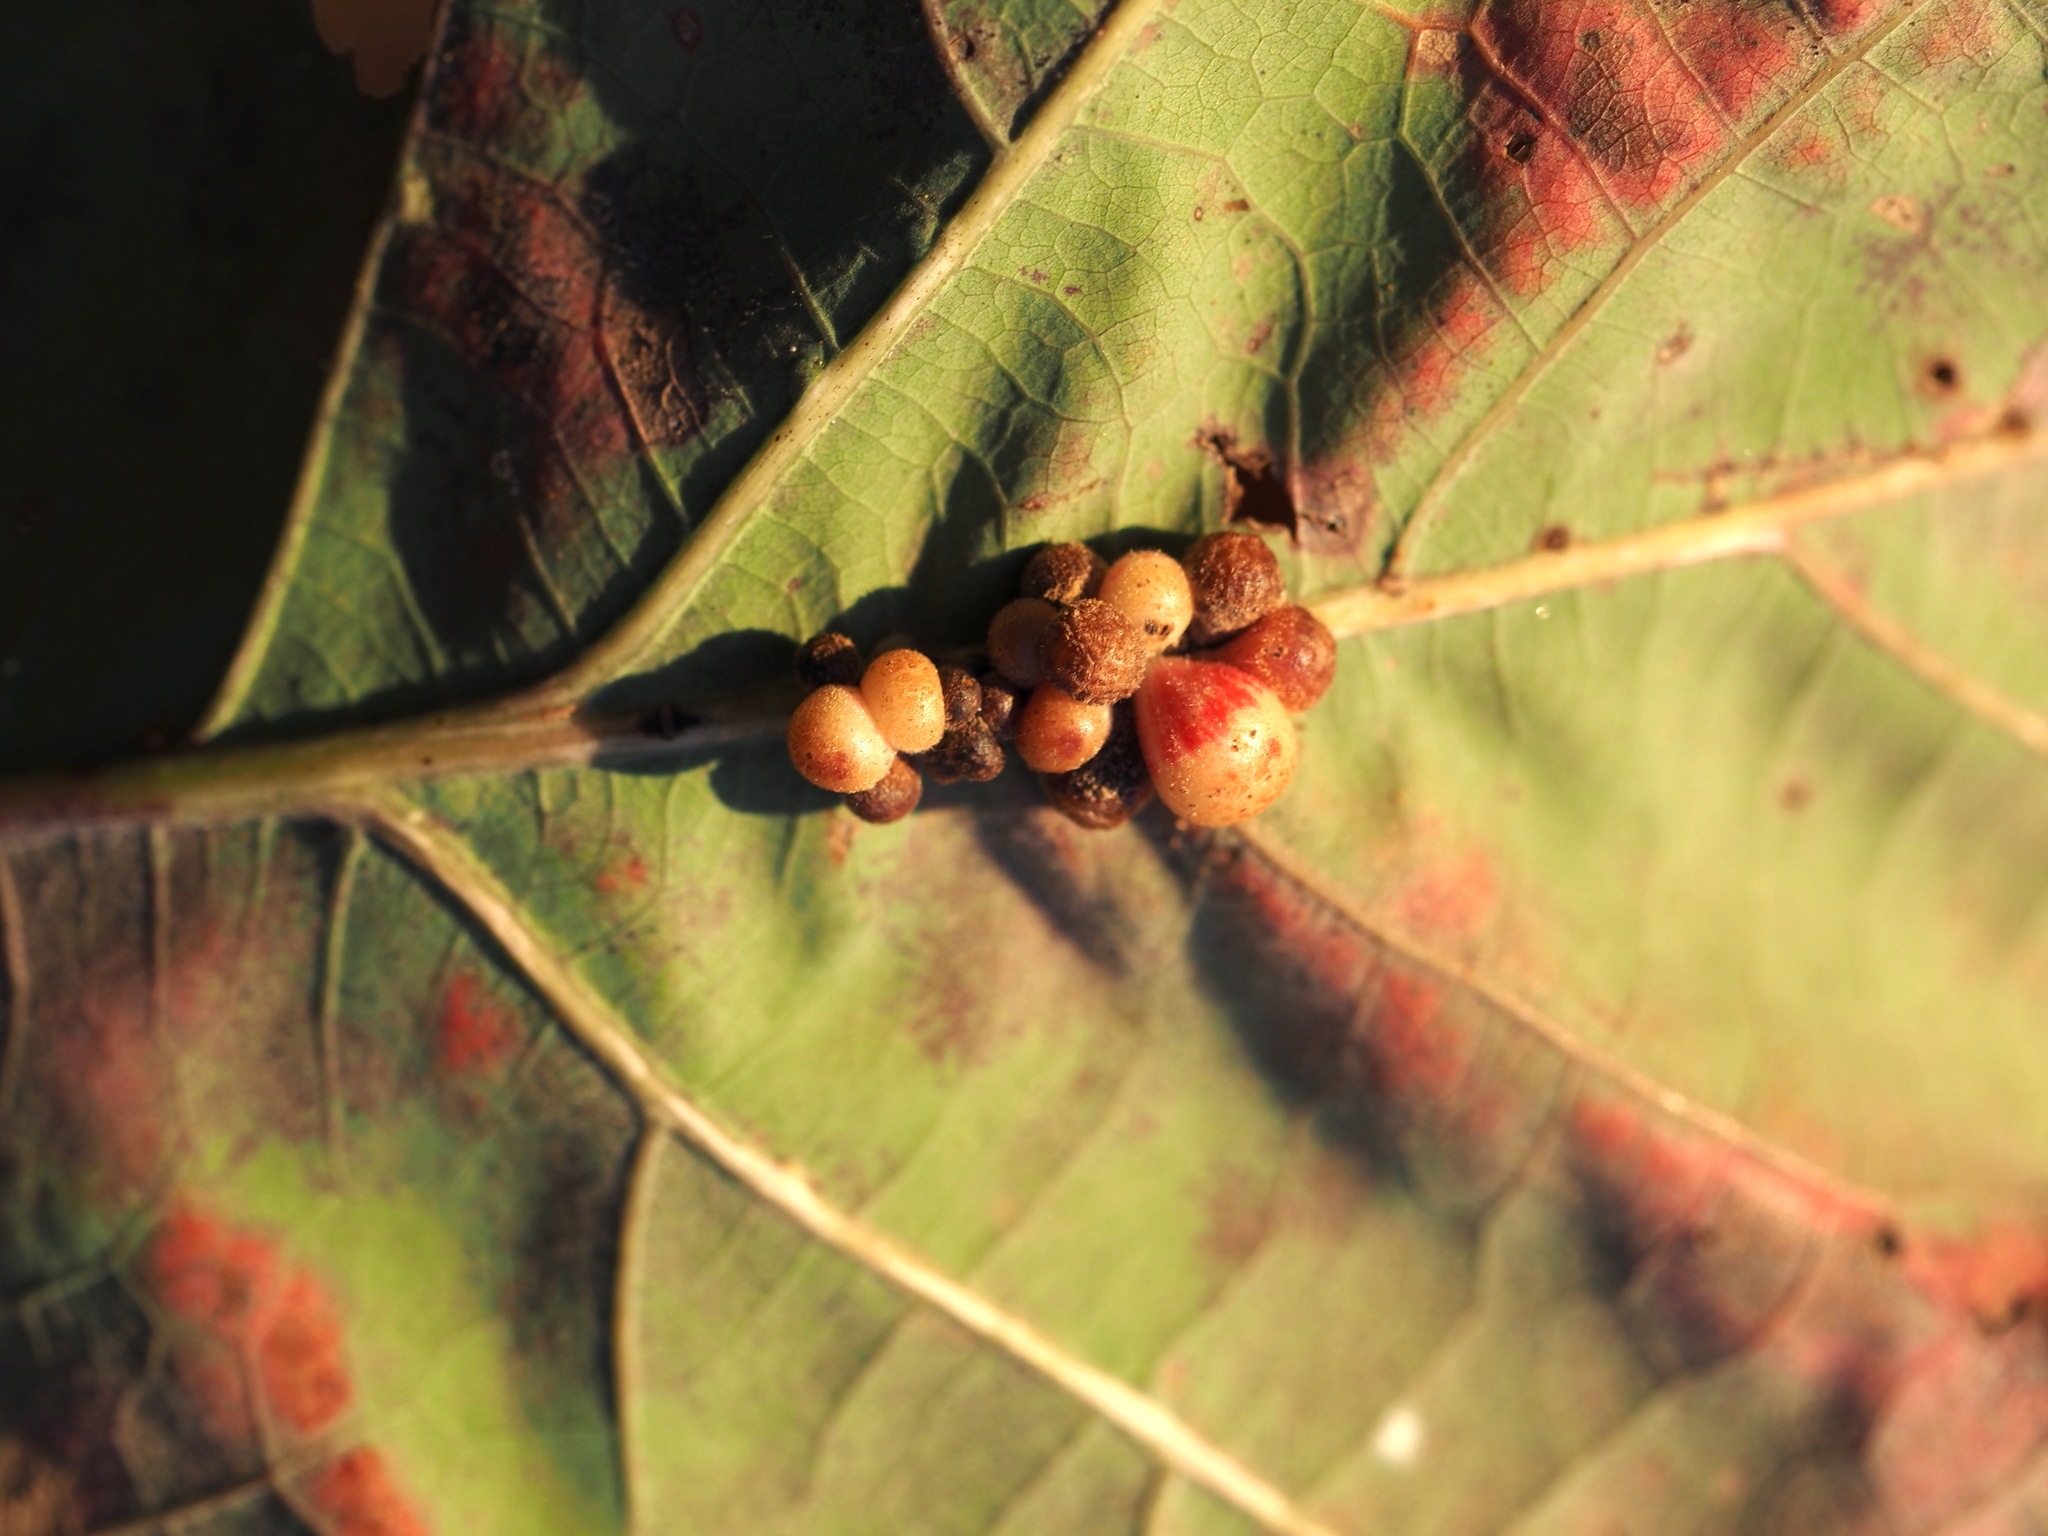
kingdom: Animalia
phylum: Arthropoda
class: Insecta
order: Hymenoptera
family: Cynipidae
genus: Andricus
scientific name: Andricus
